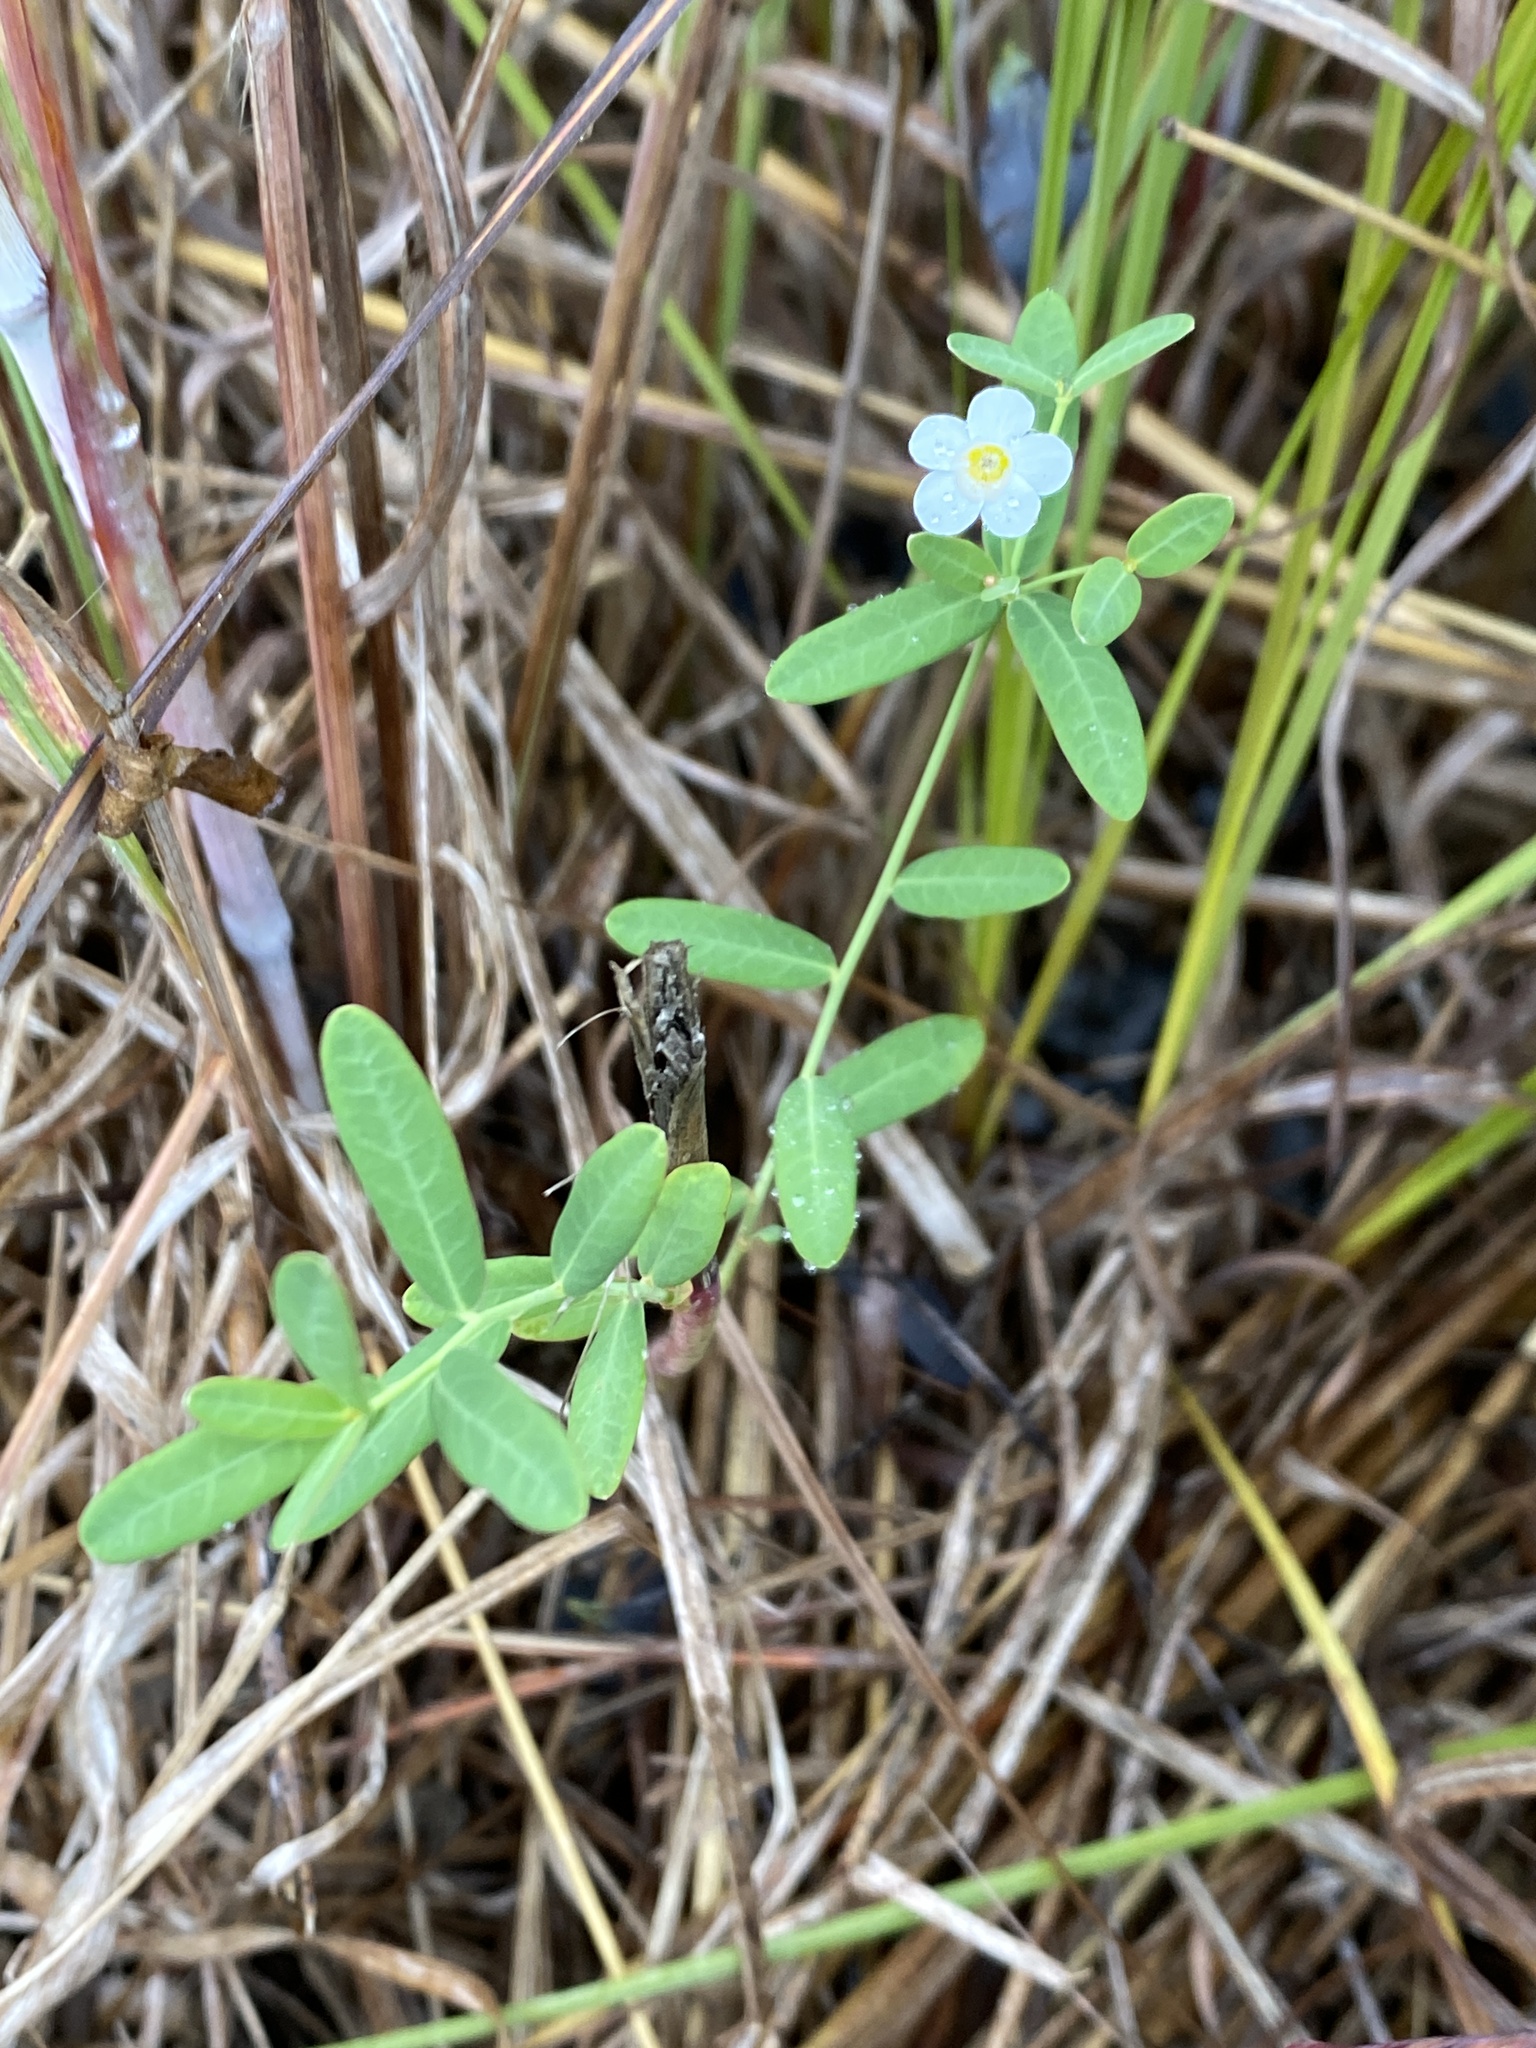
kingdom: Plantae
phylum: Tracheophyta
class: Magnoliopsida
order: Malpighiales
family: Euphorbiaceae
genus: Euphorbia
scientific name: Euphorbia corollata
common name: Flowering spurge
